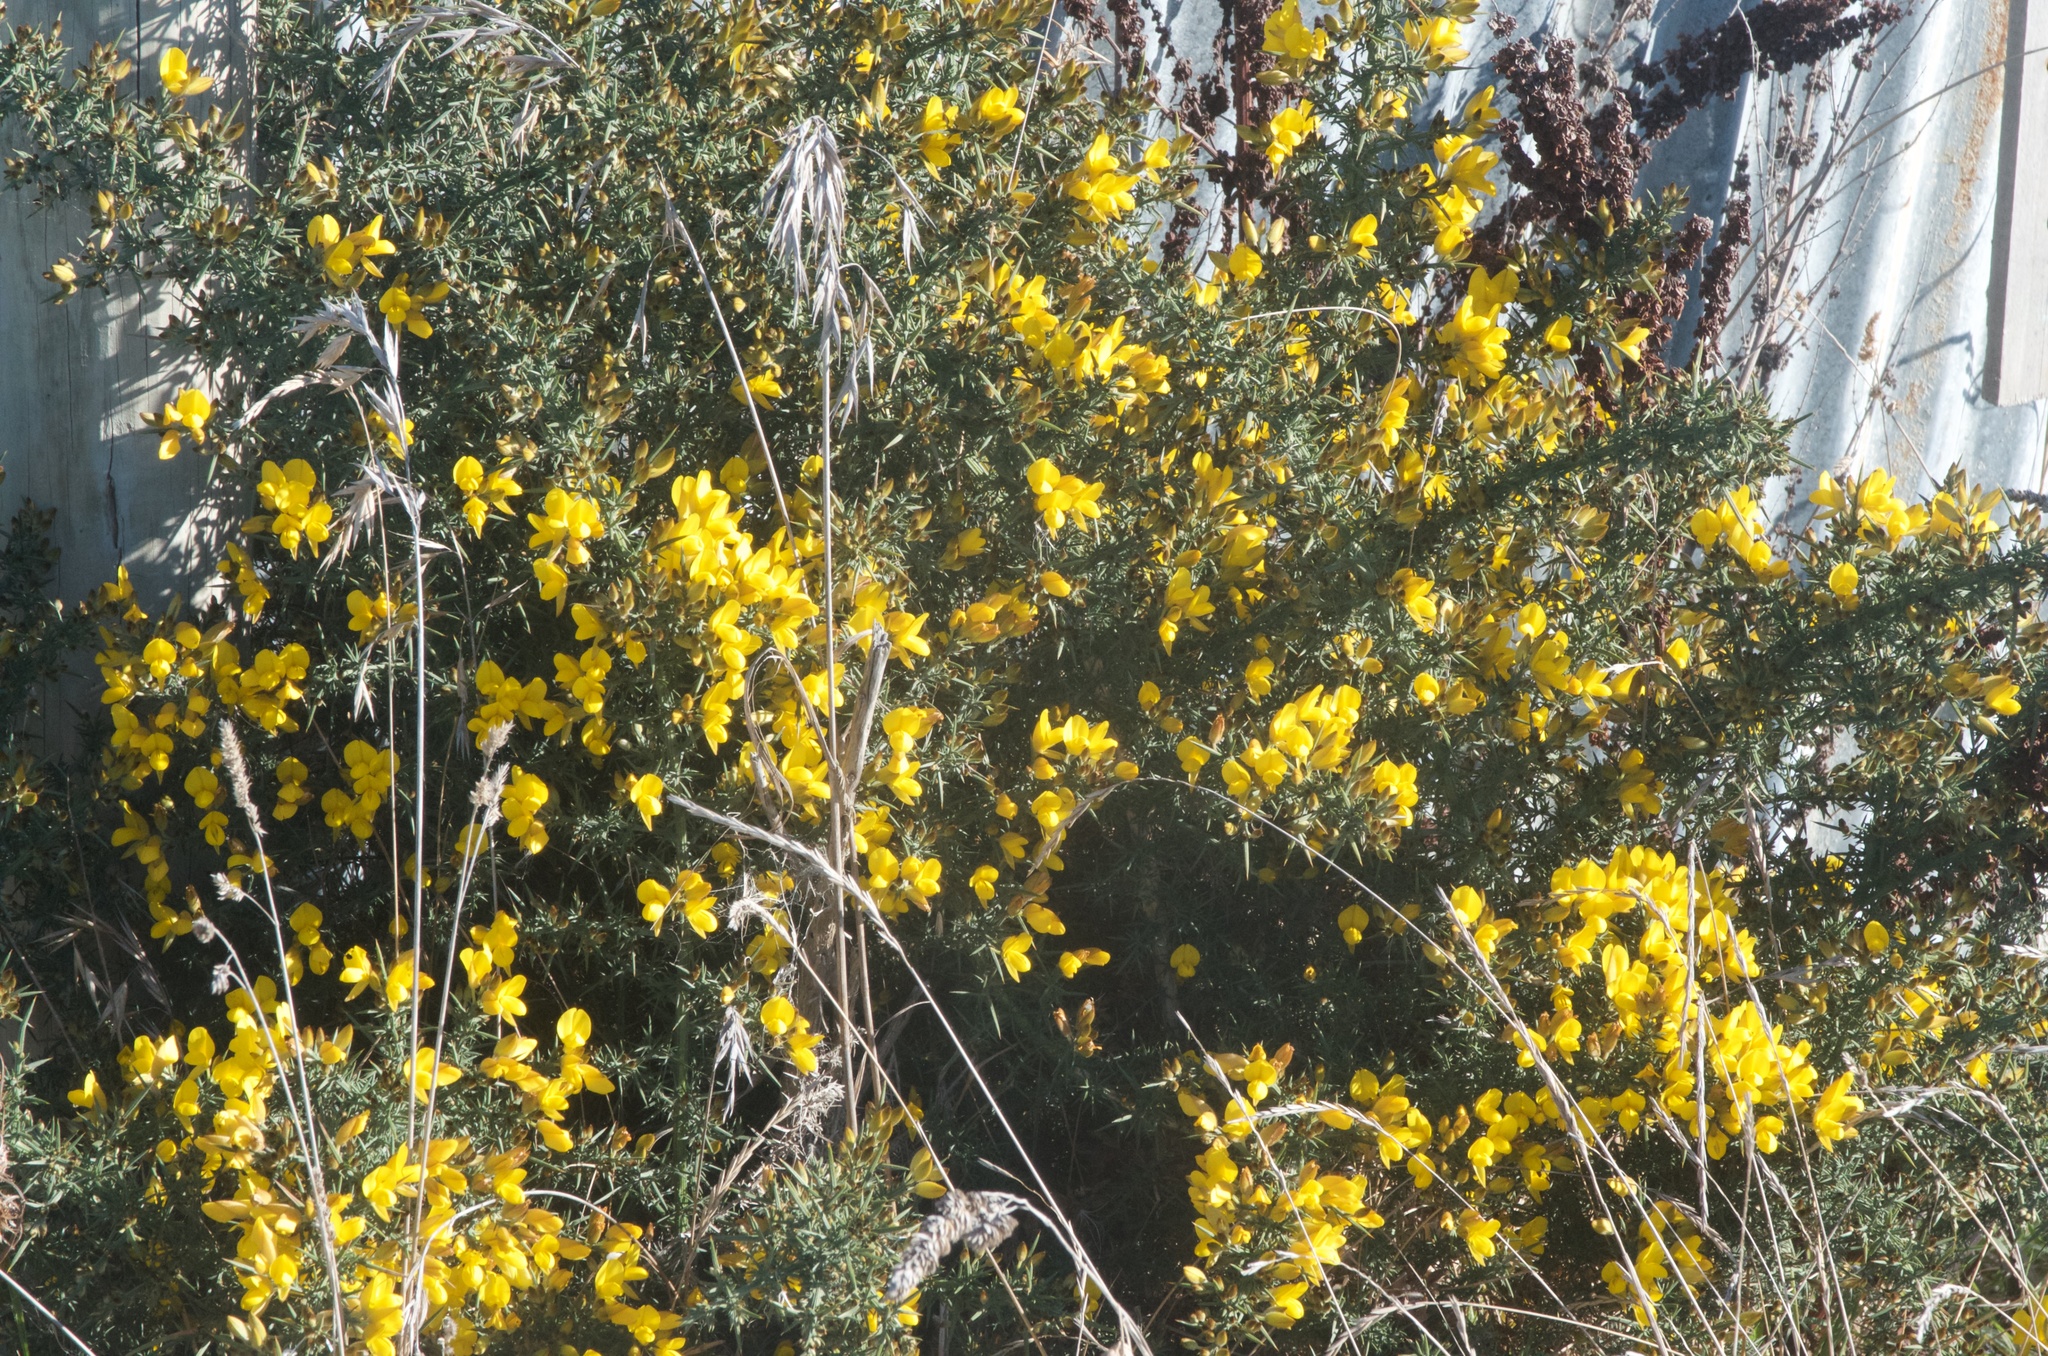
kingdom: Plantae
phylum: Tracheophyta
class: Magnoliopsida
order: Fabales
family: Fabaceae
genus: Ulex
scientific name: Ulex europaeus
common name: Common gorse
